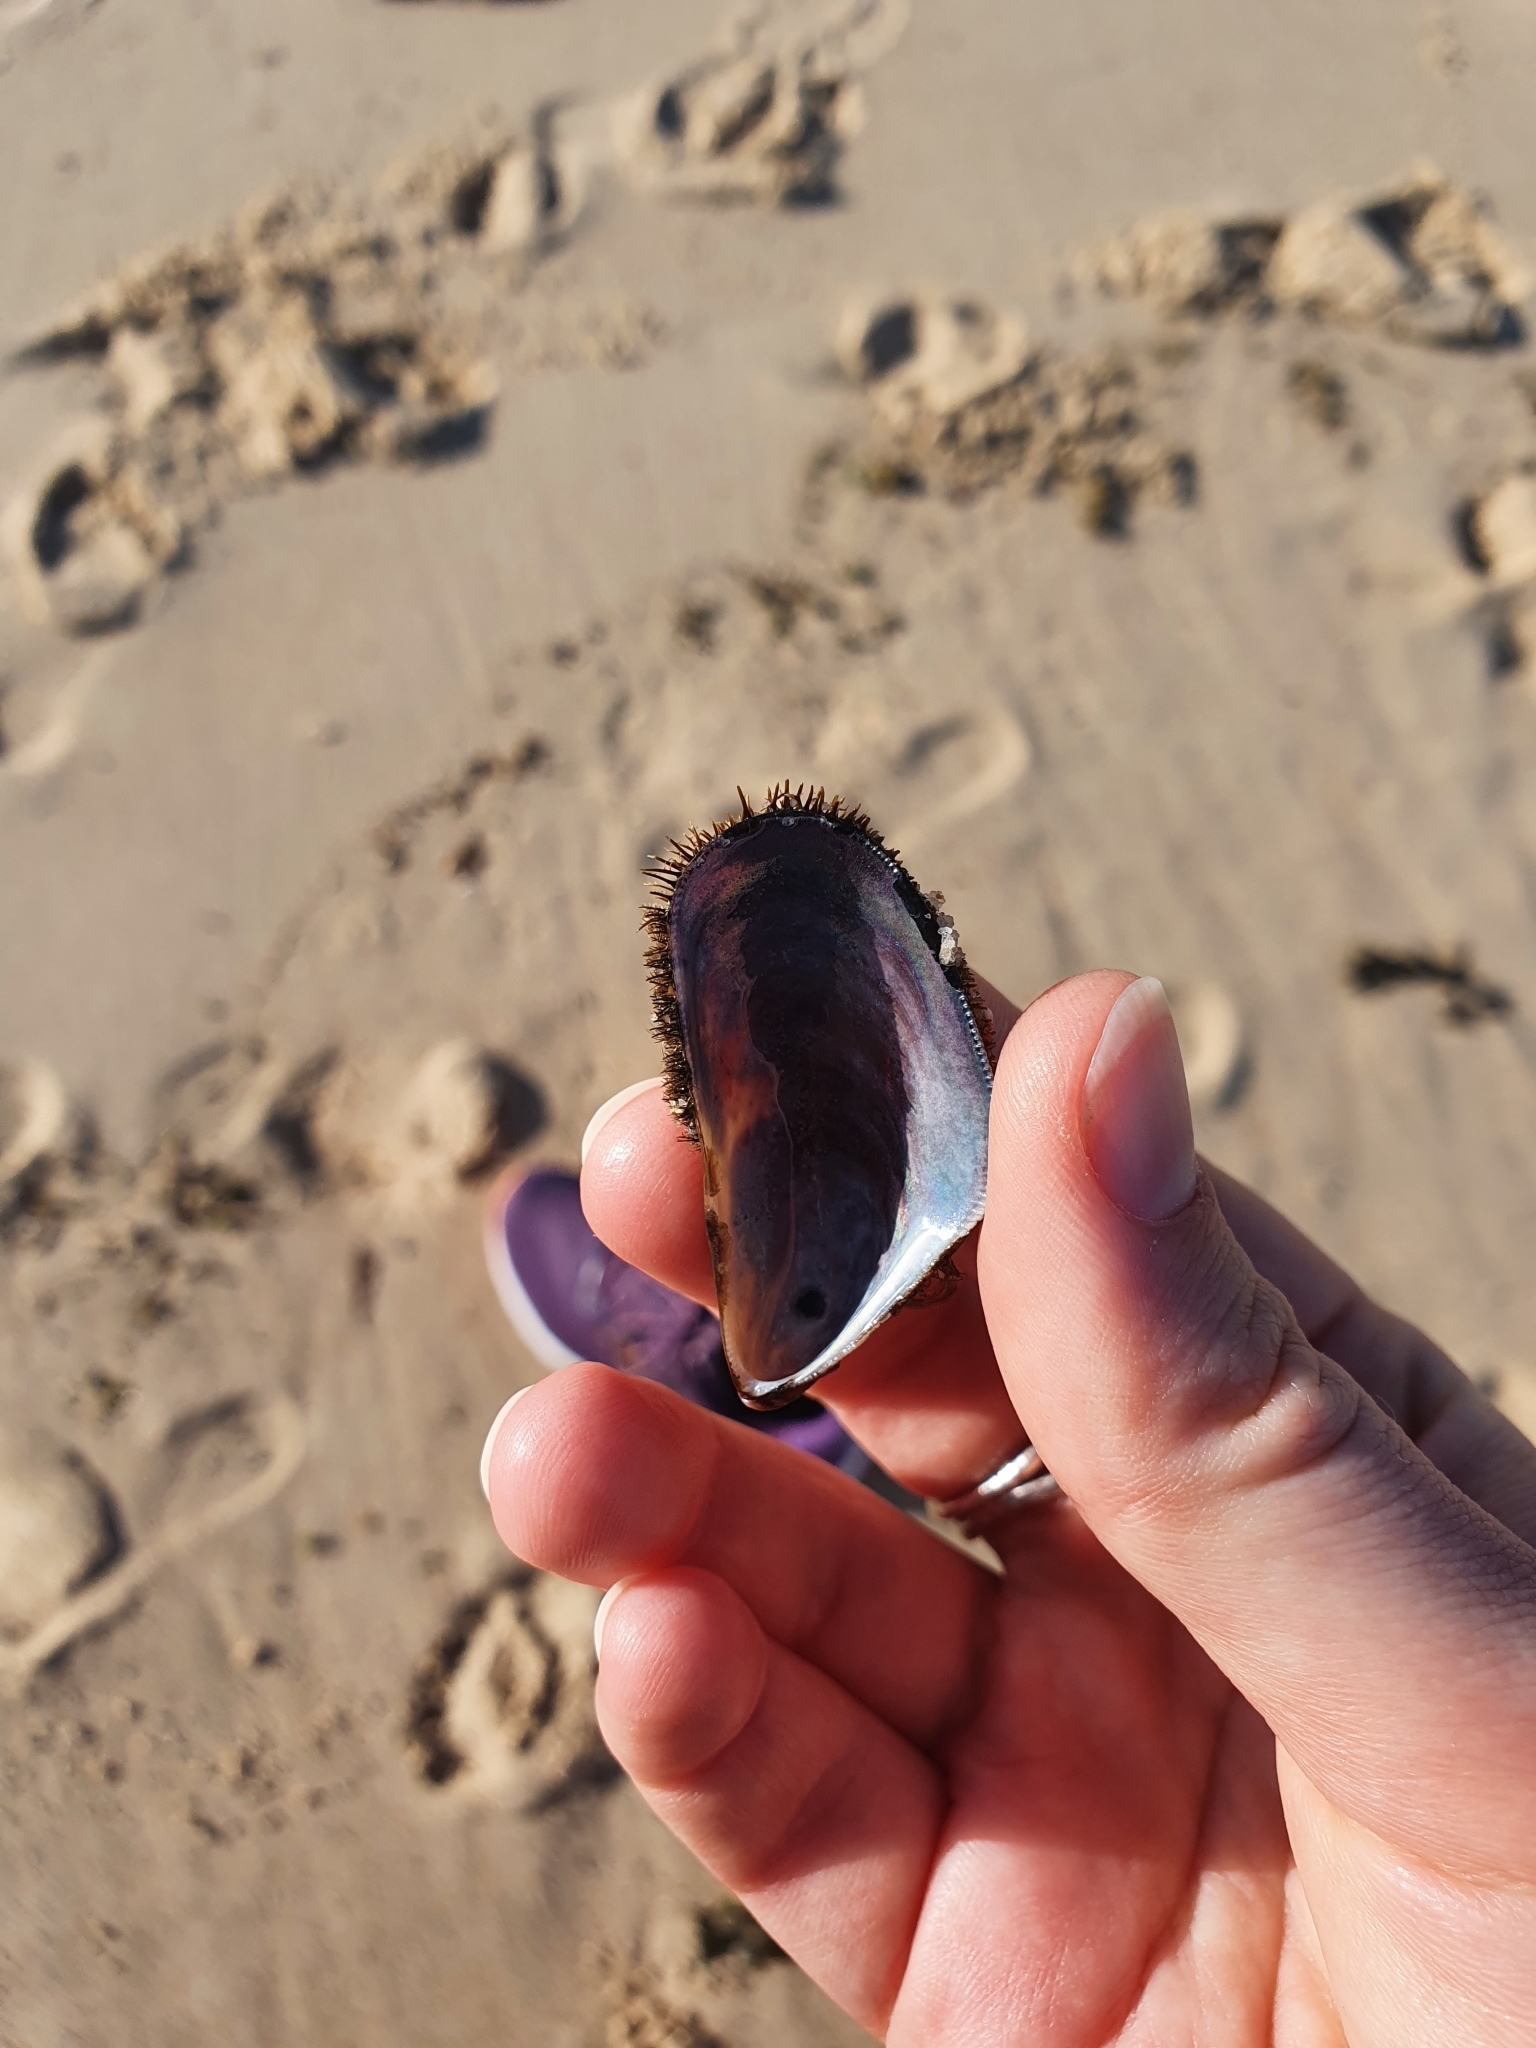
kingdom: Animalia
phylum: Mollusca
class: Bivalvia
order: Mytilida
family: Mytilidae
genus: Trichomya
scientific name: Trichomya hirsuta
